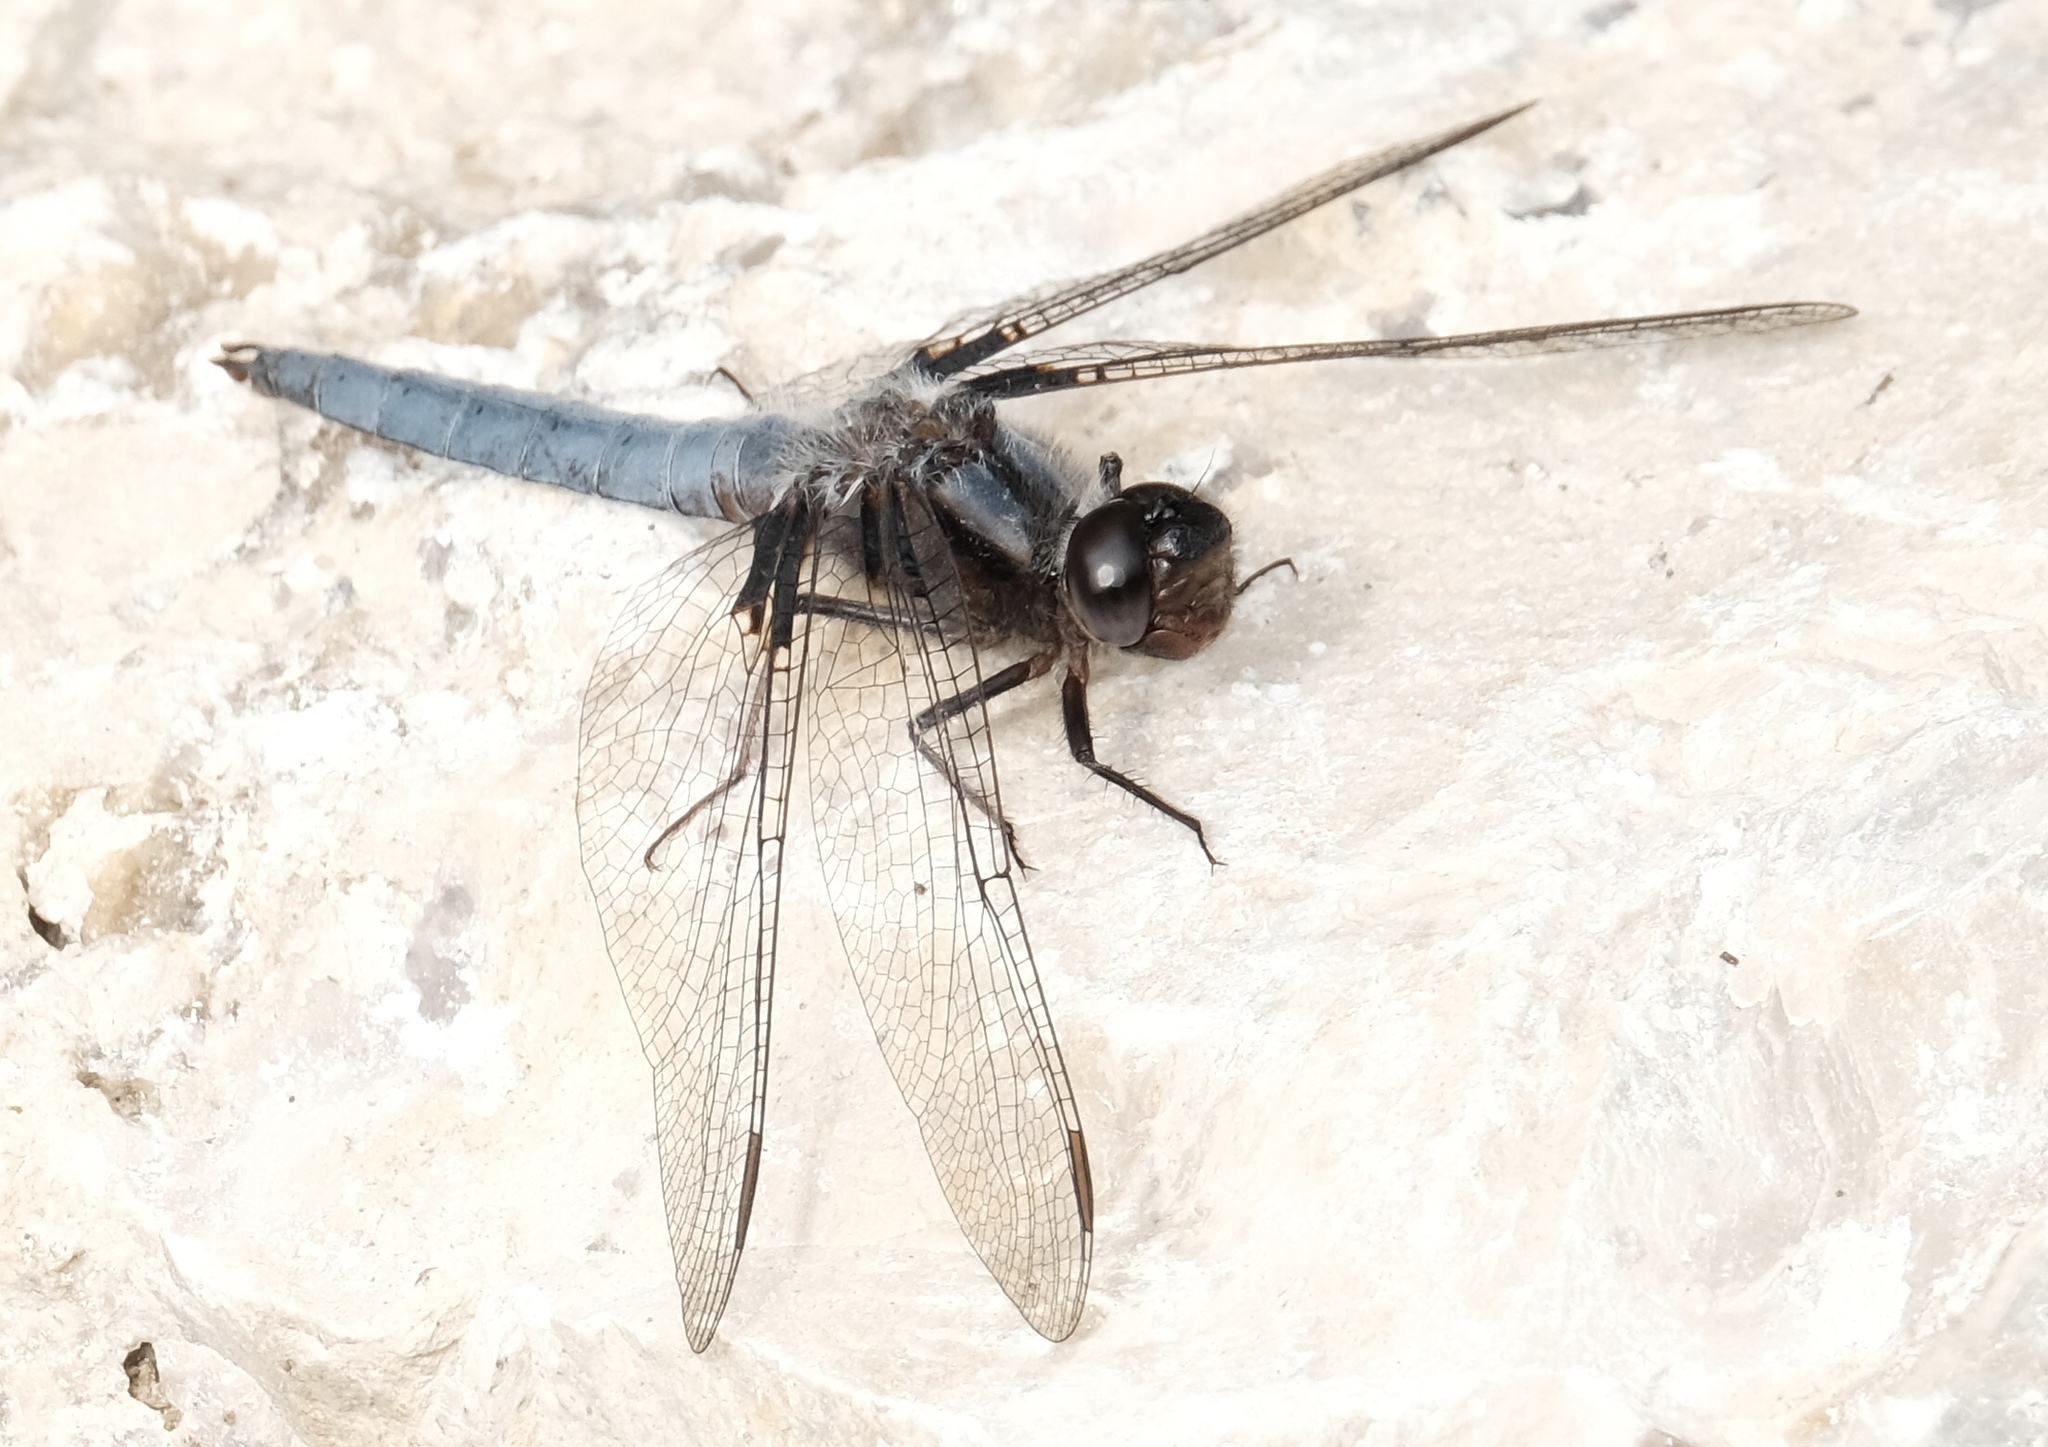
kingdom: Animalia
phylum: Arthropoda
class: Insecta
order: Odonata
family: Libellulidae
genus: Ladona
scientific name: Ladona deplanata
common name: Blue corporal
